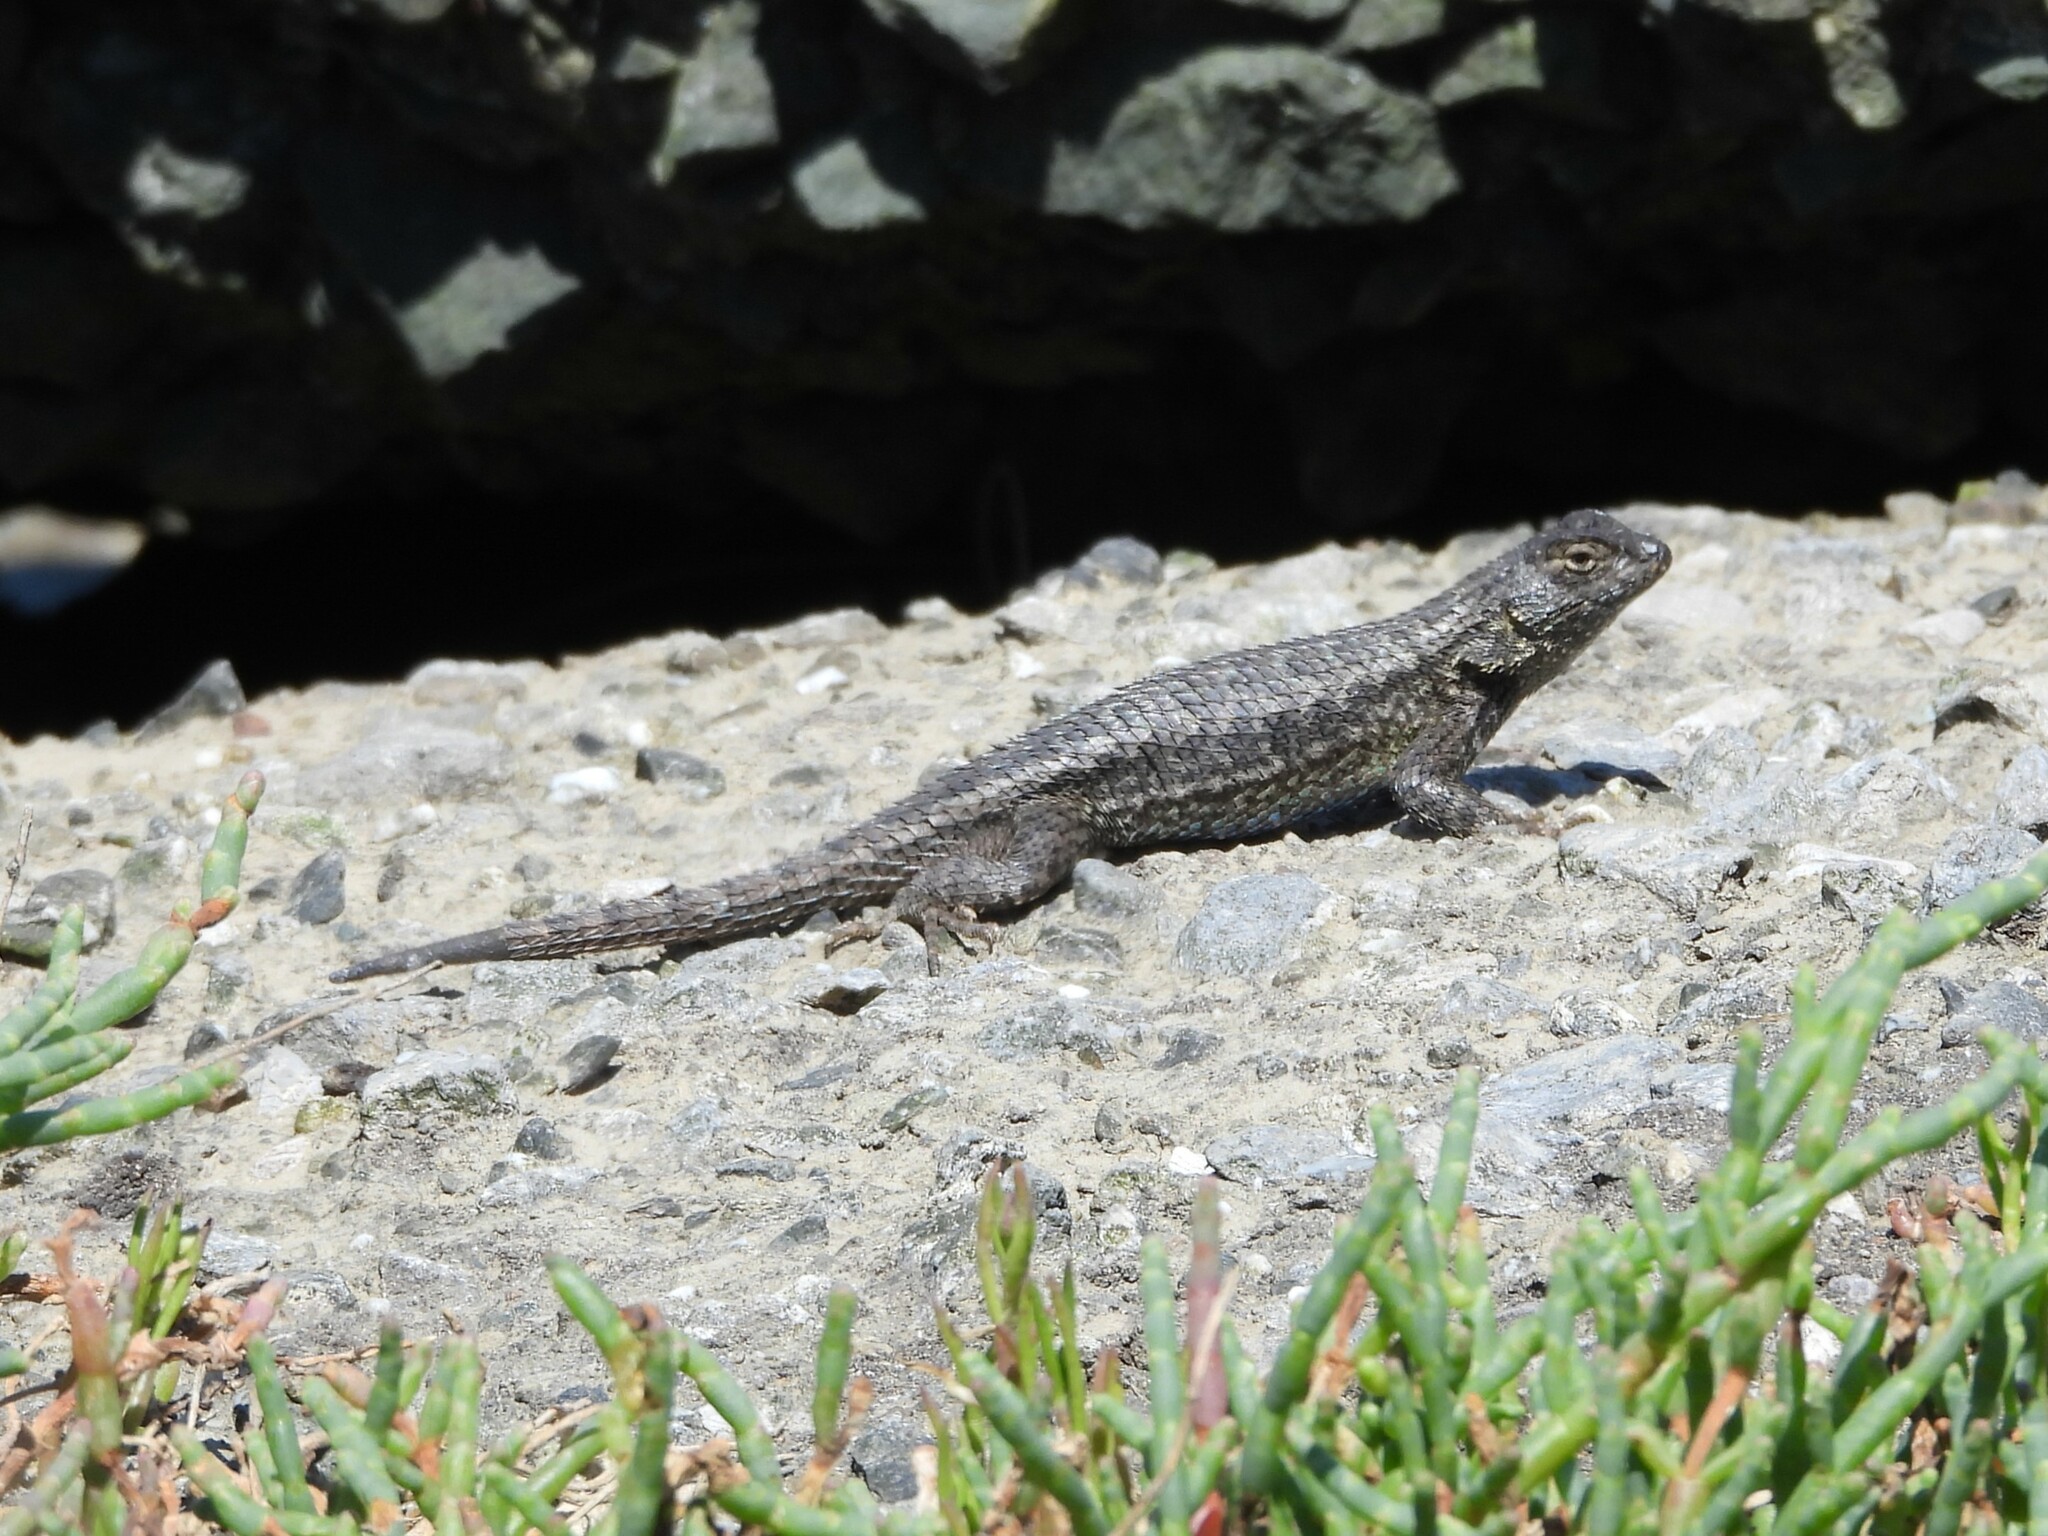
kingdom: Animalia
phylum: Chordata
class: Squamata
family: Phrynosomatidae
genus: Sceloporus
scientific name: Sceloporus occidentalis
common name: Western fence lizard
